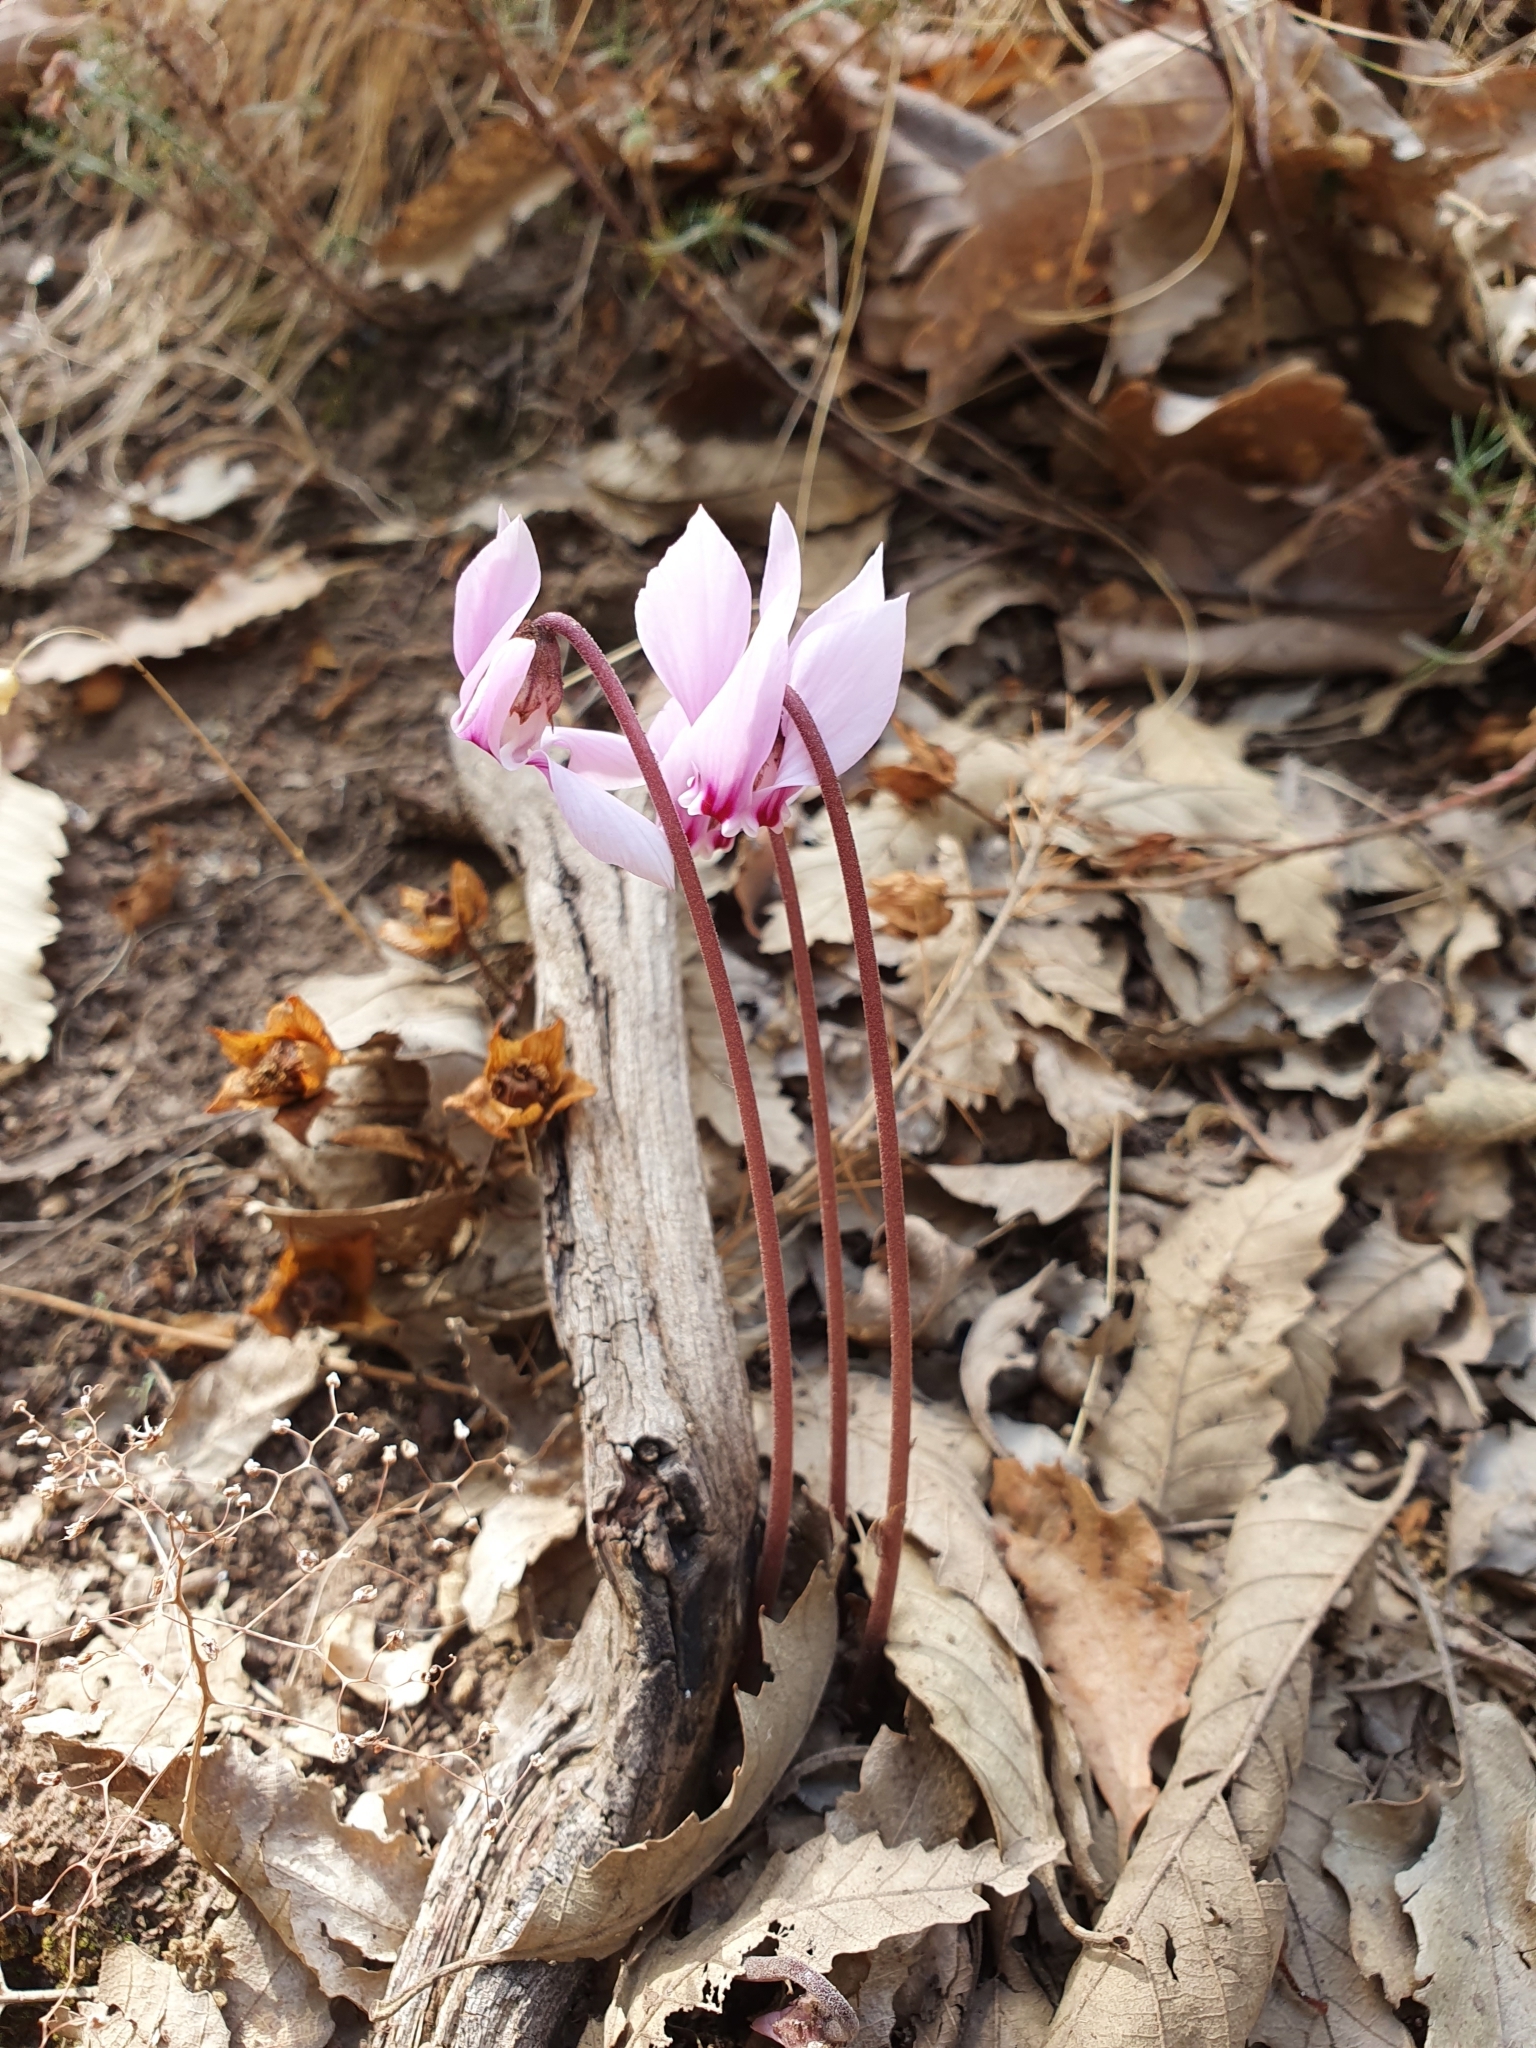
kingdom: Plantae
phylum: Tracheophyta
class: Magnoliopsida
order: Ericales
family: Primulaceae
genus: Cyclamen
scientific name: Cyclamen africanum
